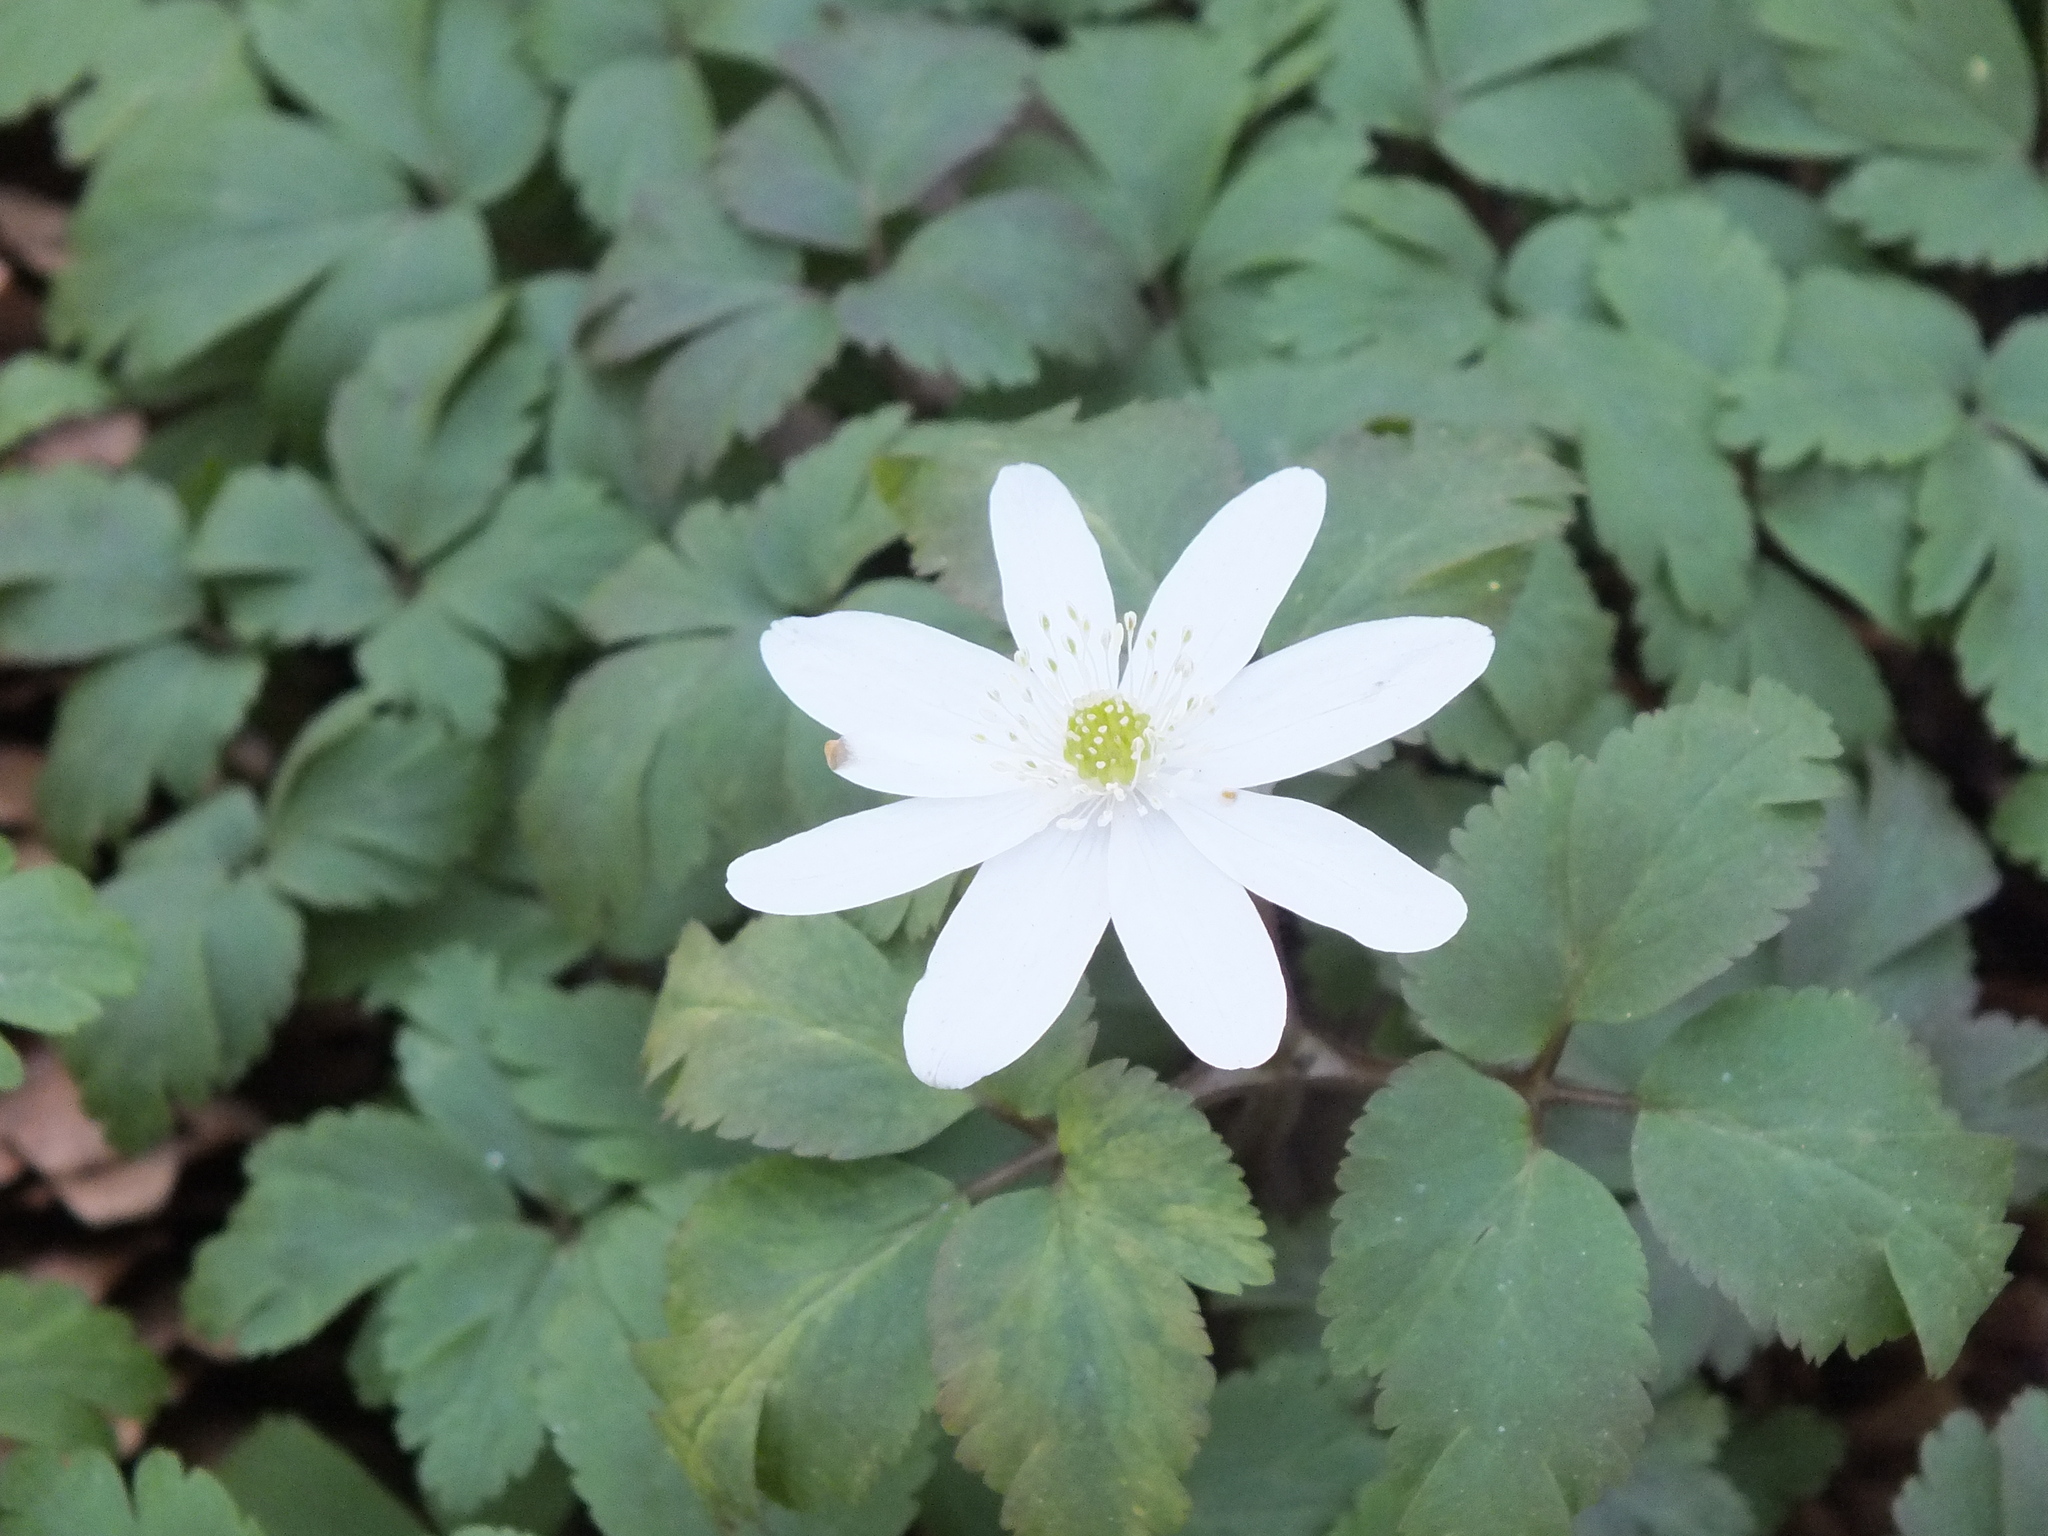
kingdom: Plantae
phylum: Tracheophyta
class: Magnoliopsida
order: Ranunculales
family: Ranunculaceae
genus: Anemone
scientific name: Anemone altaica
